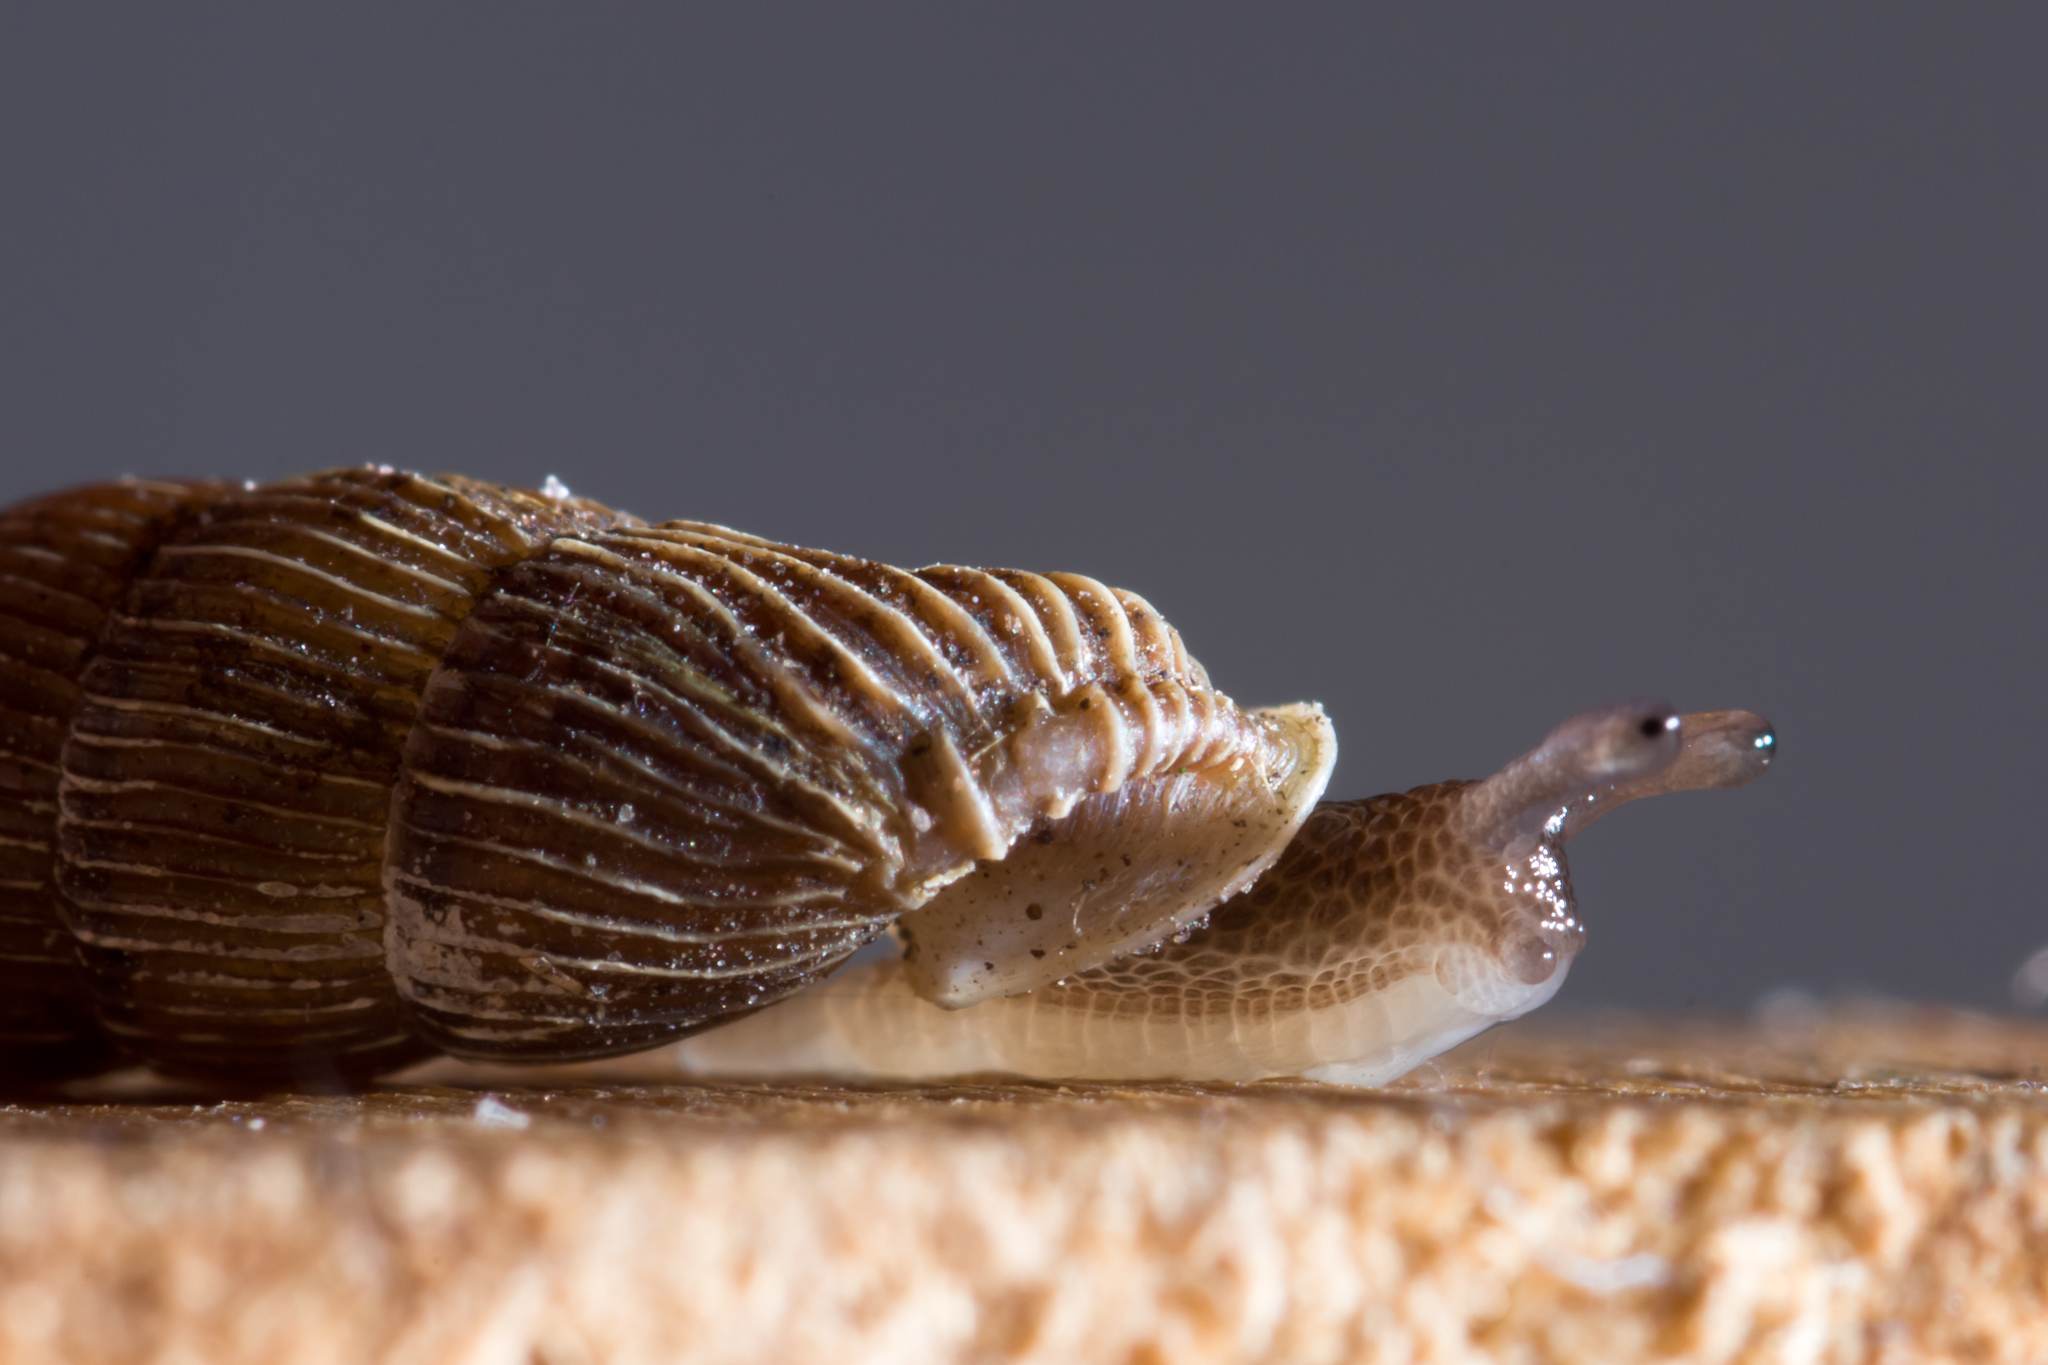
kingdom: Animalia
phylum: Mollusca
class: Gastropoda
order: Stylommatophora
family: Clausiliidae
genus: Strigillaria
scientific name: Strigillaria cana
